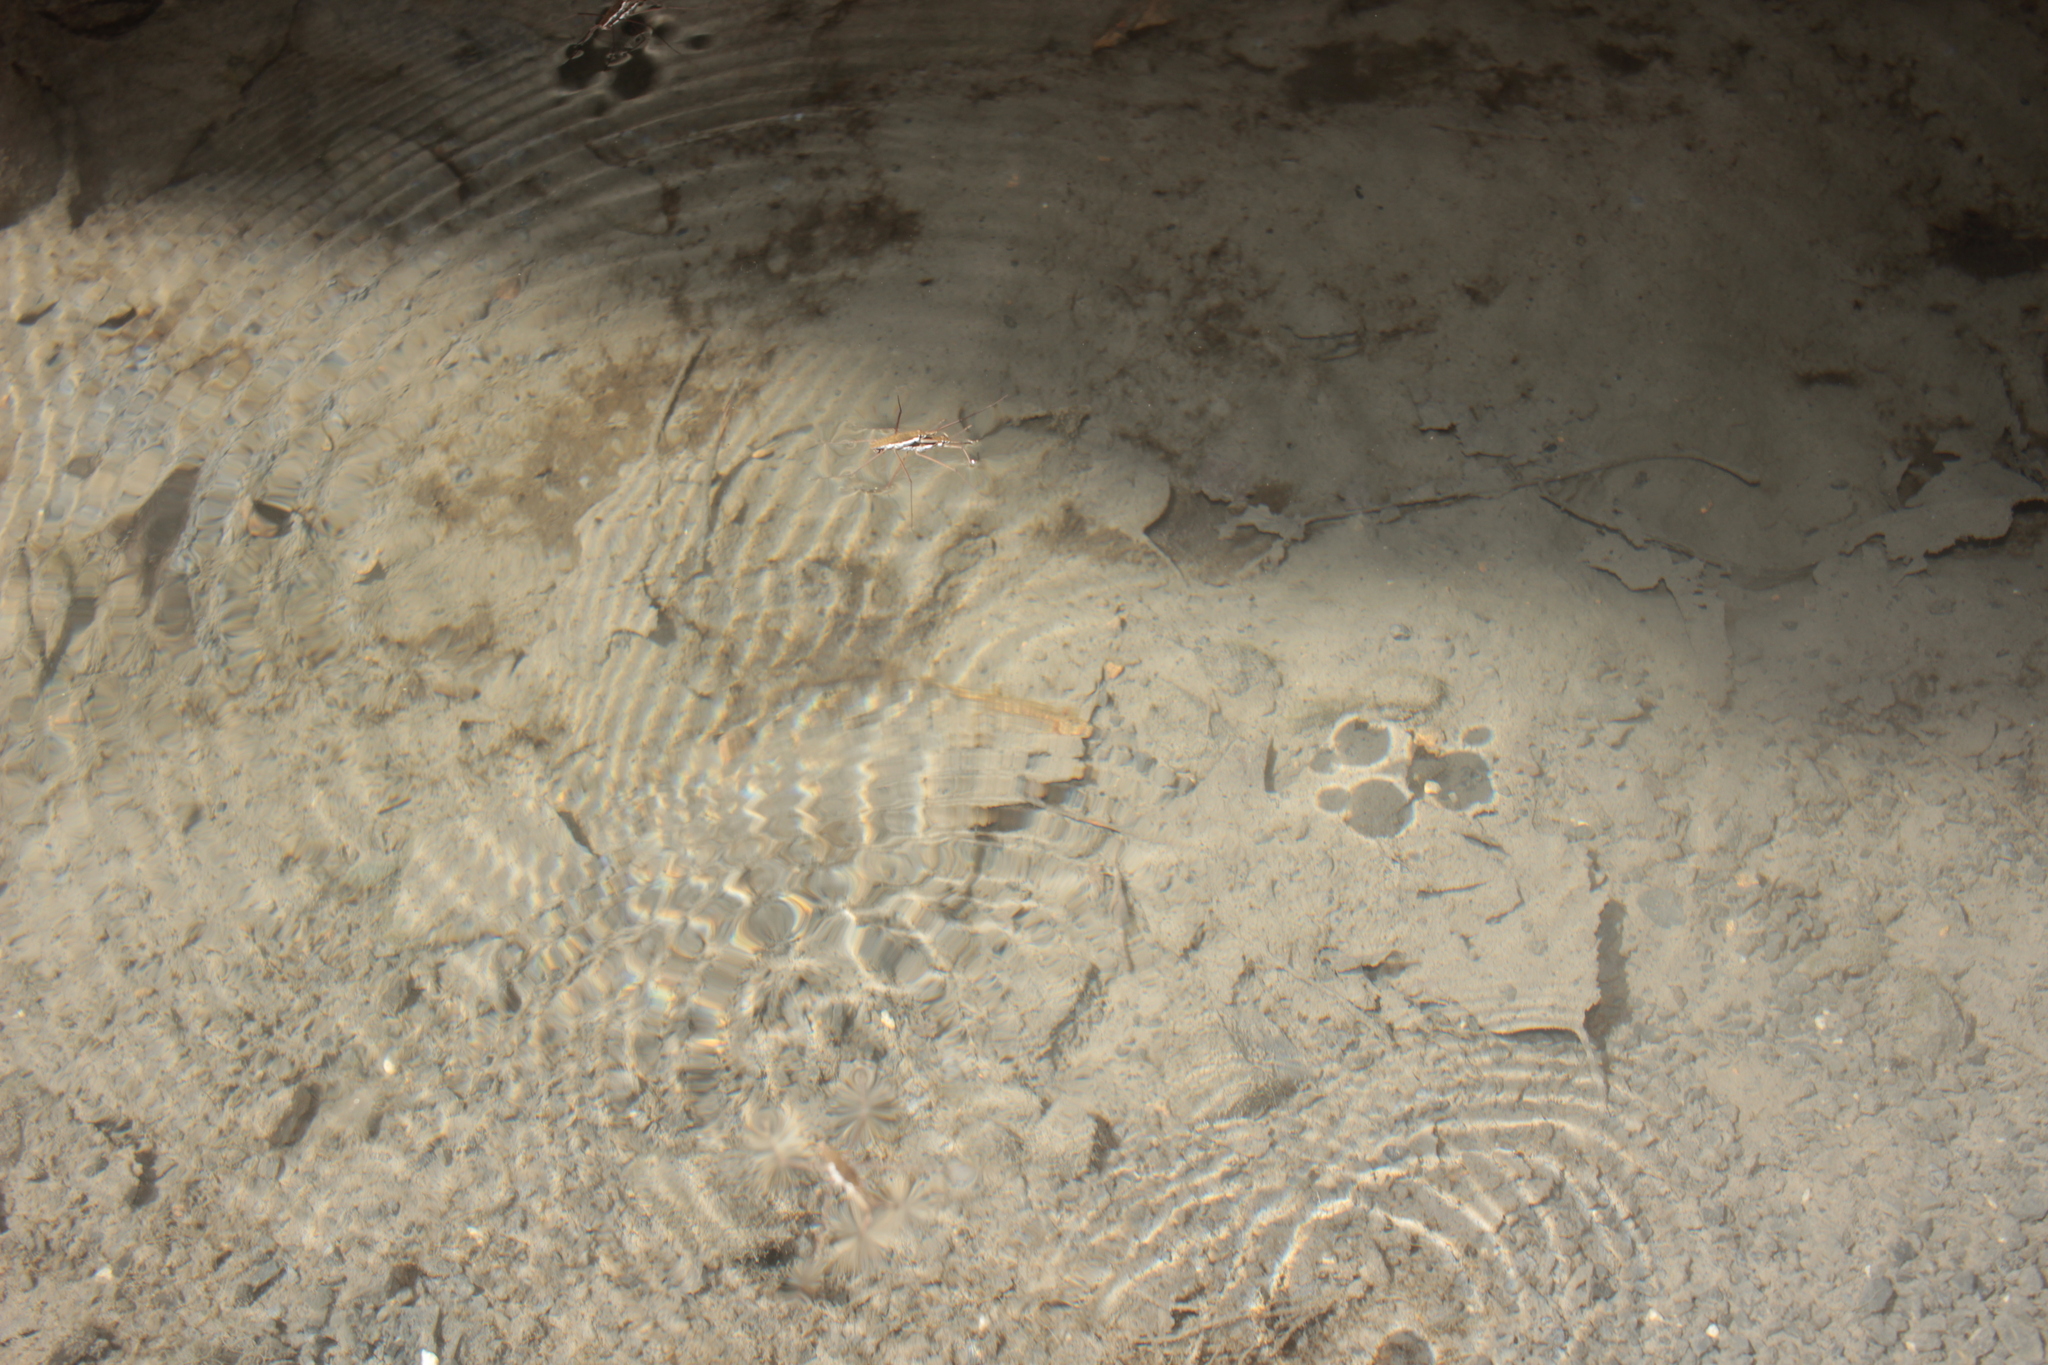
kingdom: Animalia
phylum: Chordata
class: Amphibia
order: Caudata
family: Plethodontidae
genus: Eurycea
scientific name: Eurycea cirrigera
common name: Southern two-lined salamander
